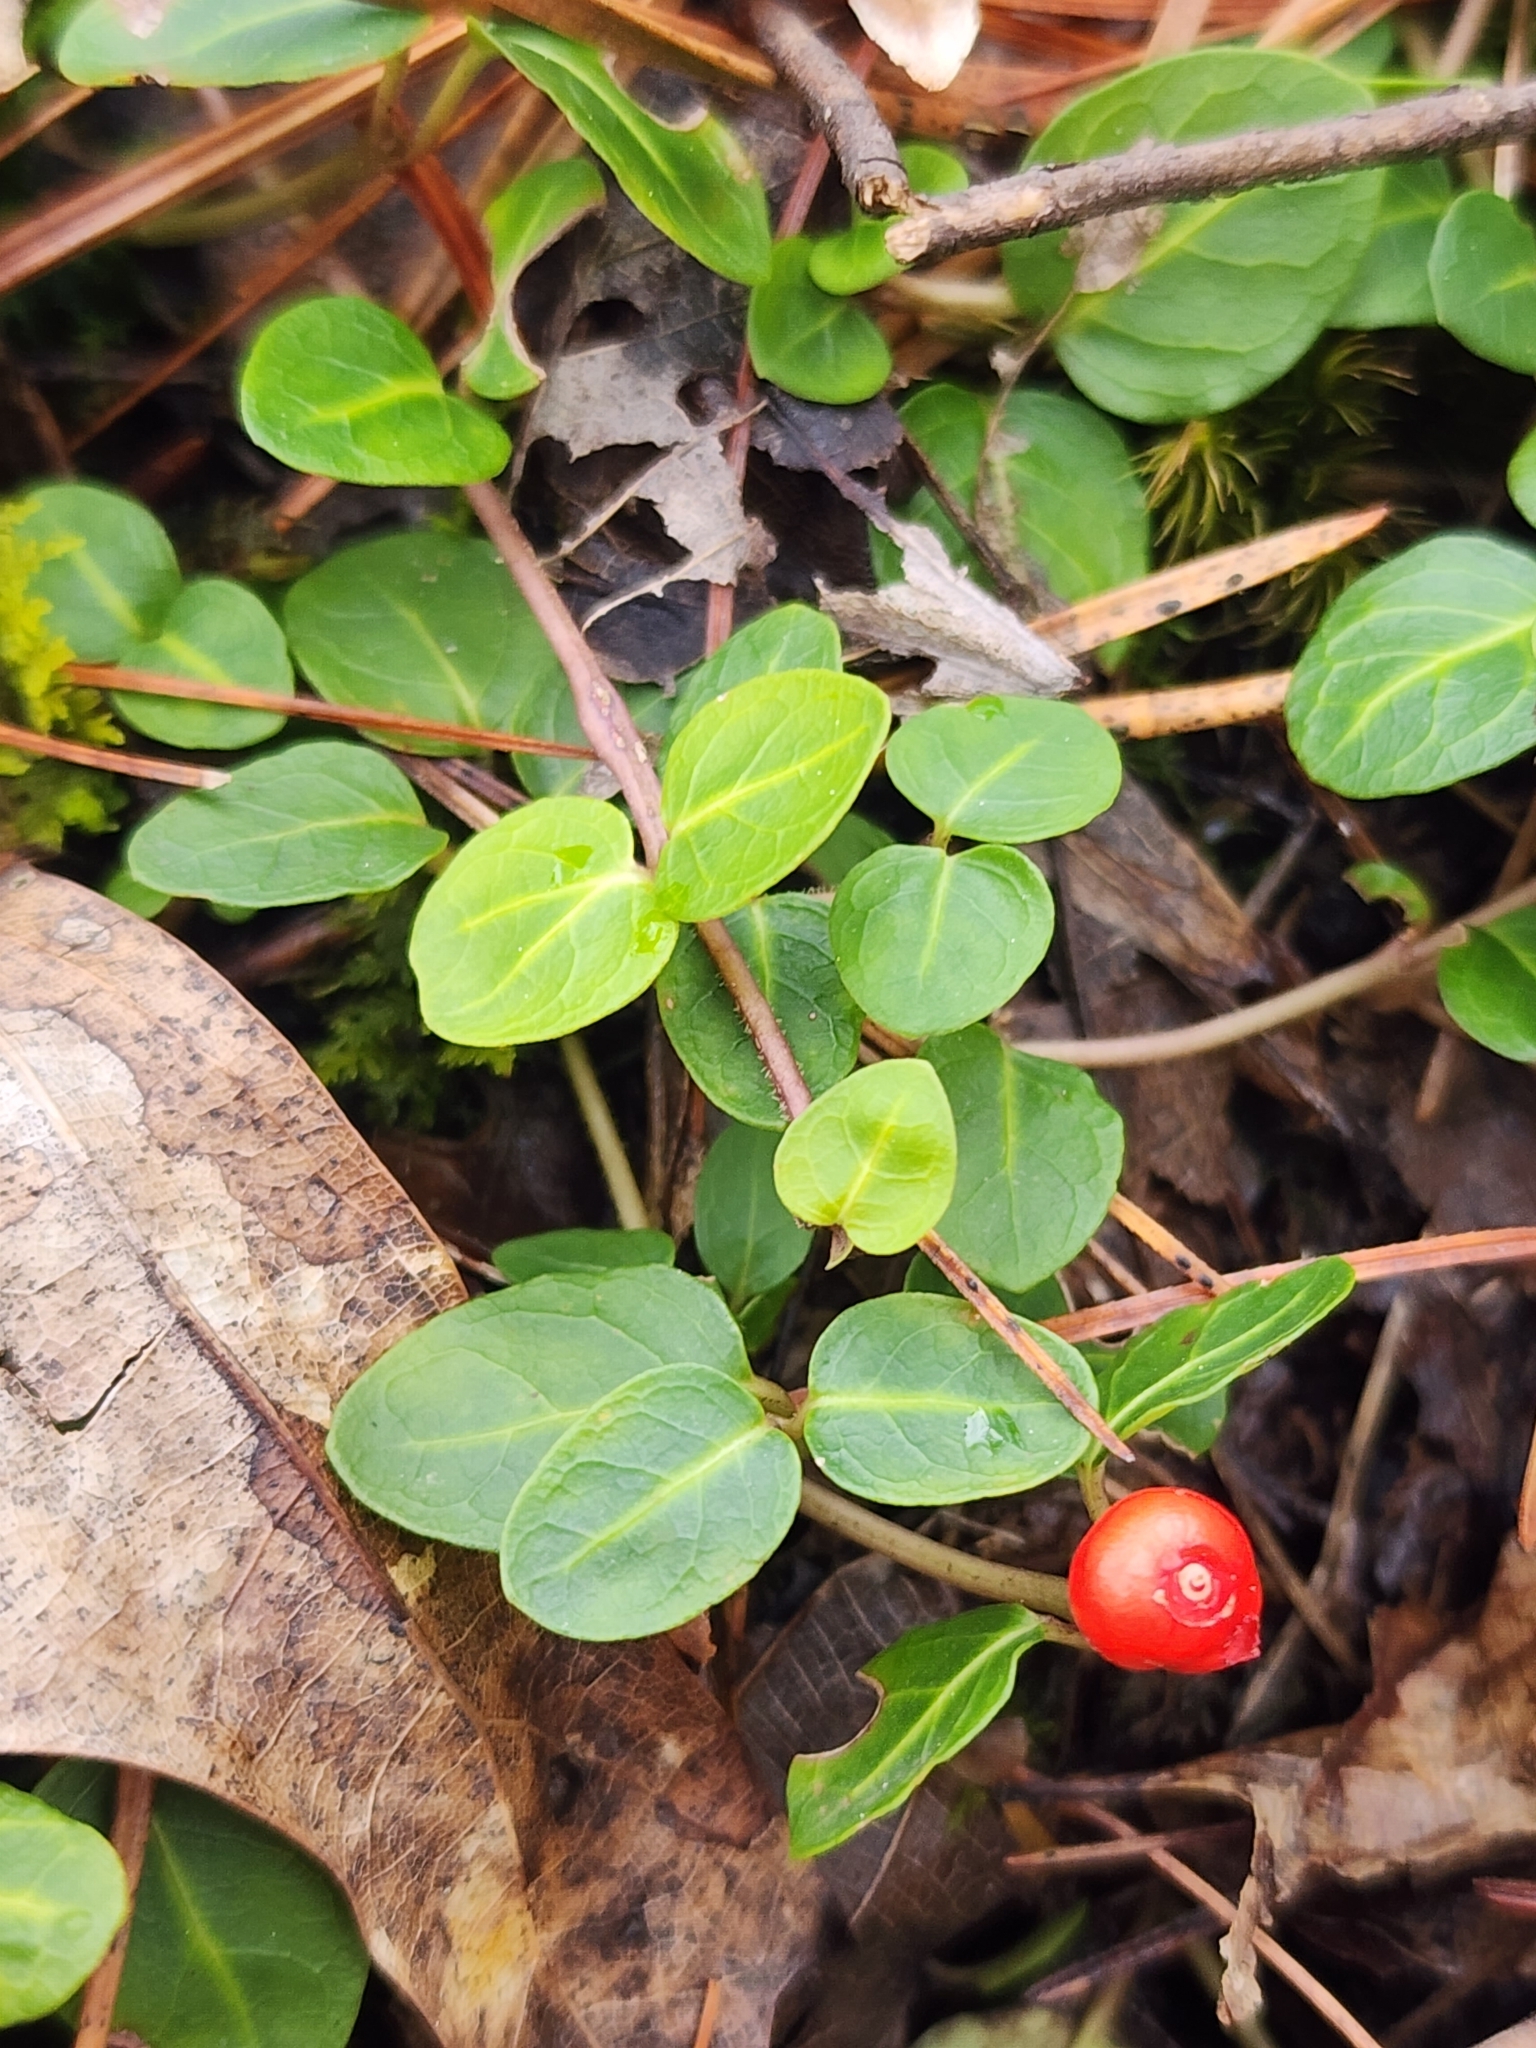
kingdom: Plantae
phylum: Tracheophyta
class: Magnoliopsida
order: Gentianales
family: Rubiaceae
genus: Mitchella
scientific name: Mitchella repens
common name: Partridge-berry
